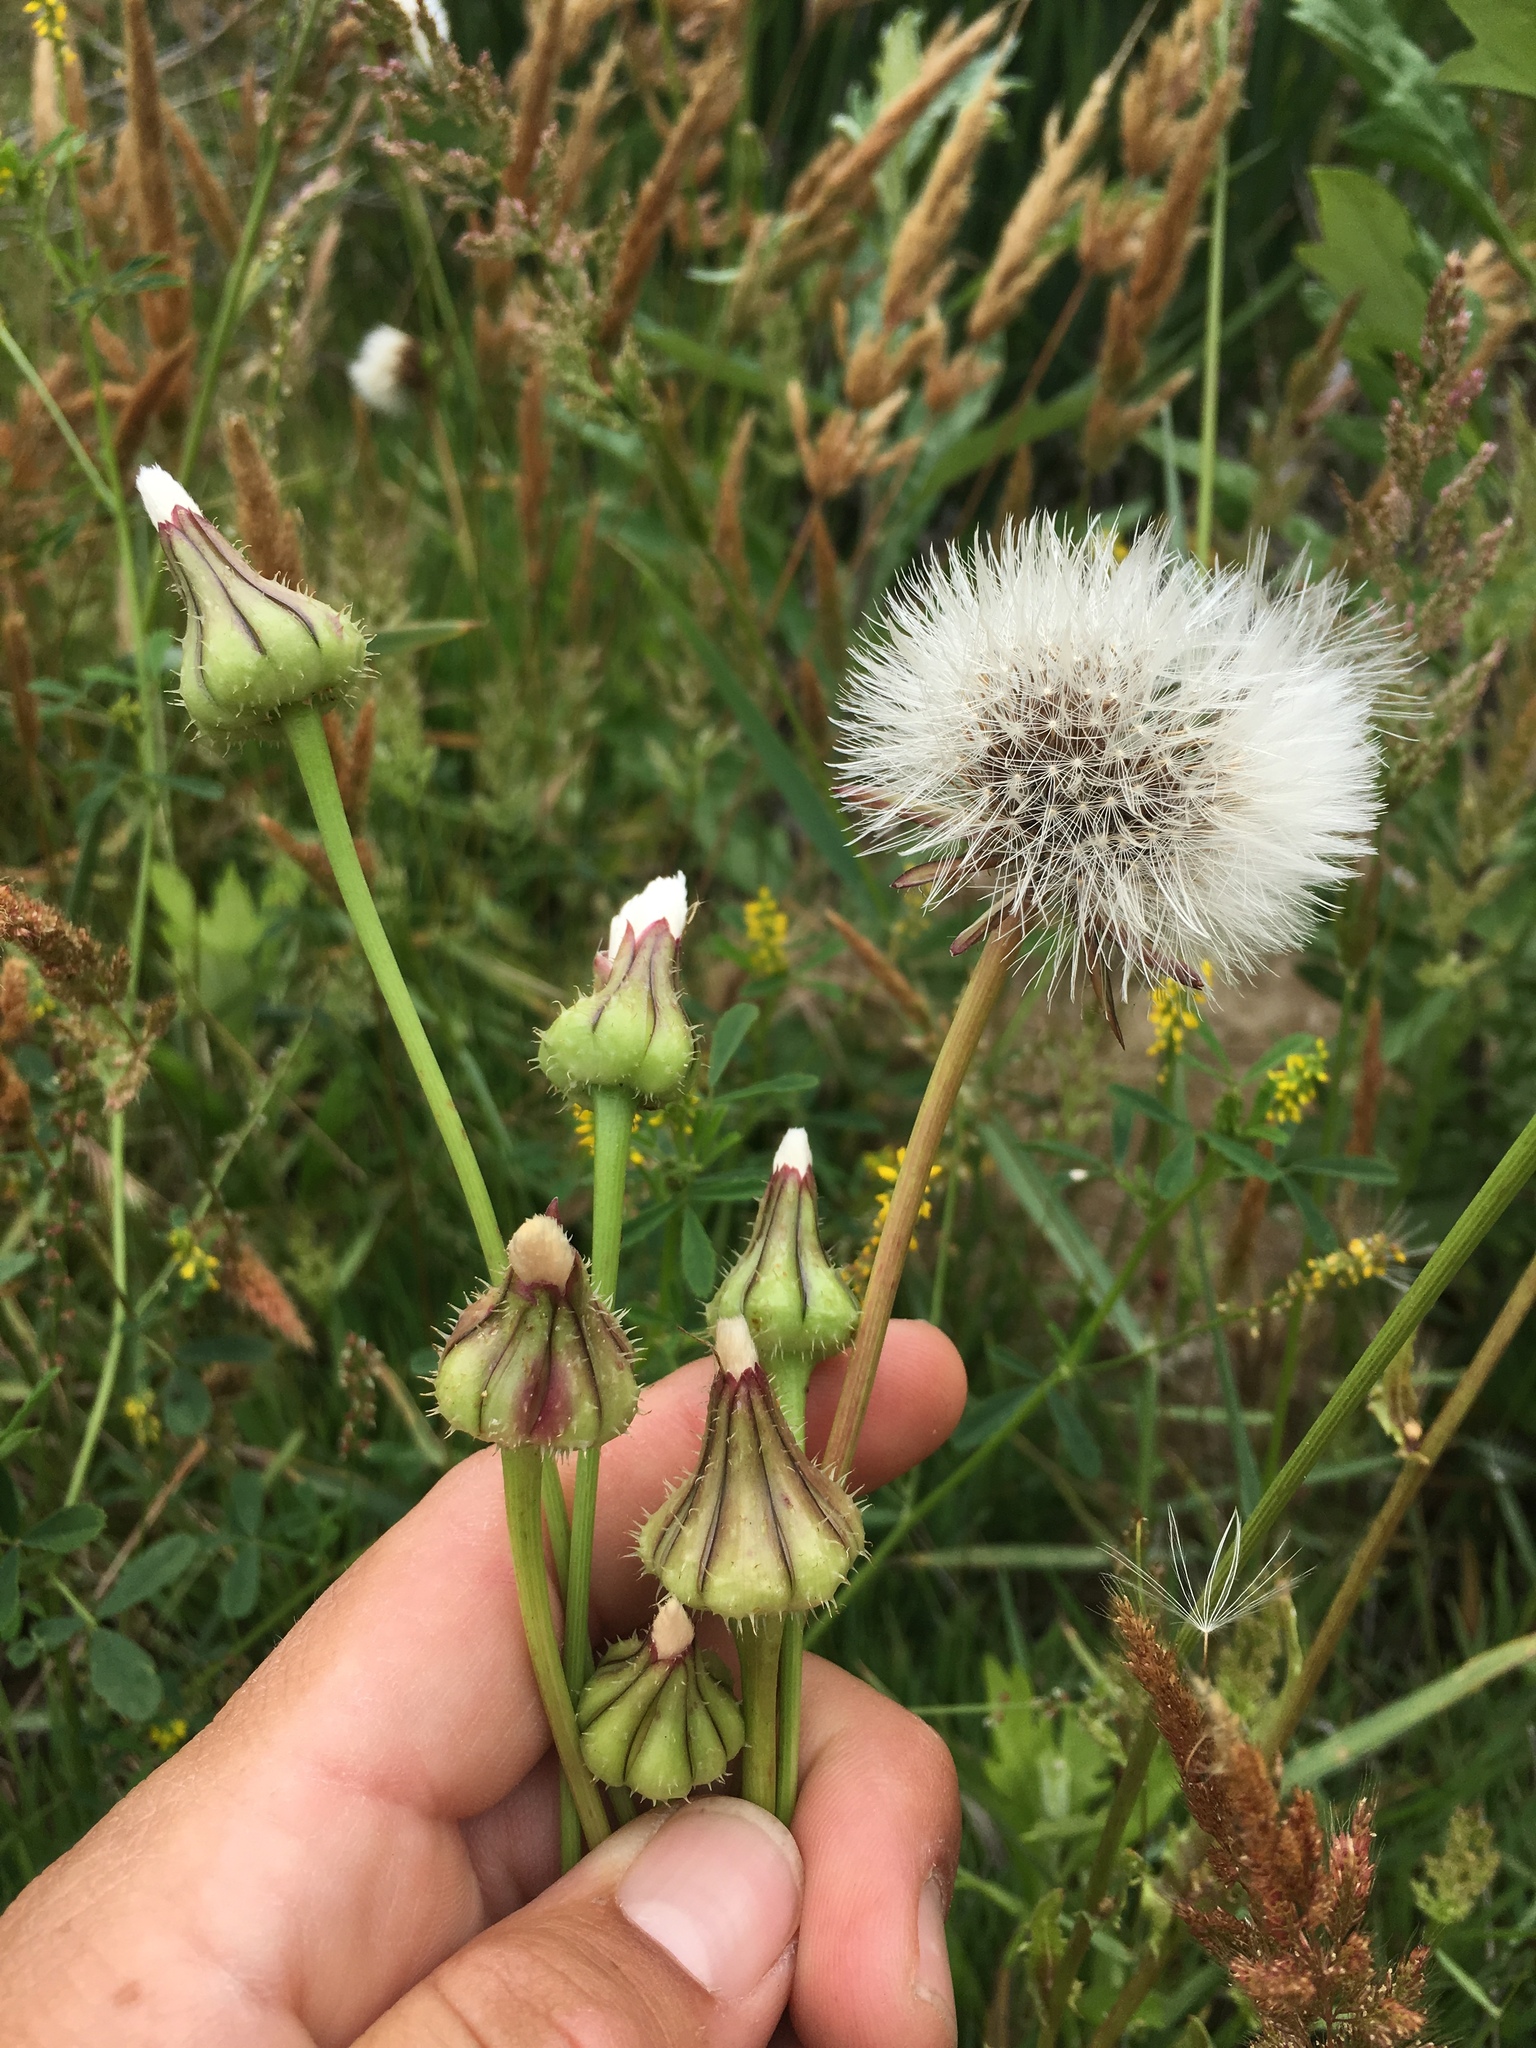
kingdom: Plantae
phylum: Tracheophyta
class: Magnoliopsida
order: Asterales
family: Asteraceae
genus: Urospermum
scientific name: Urospermum picroides
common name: False hawkbit
